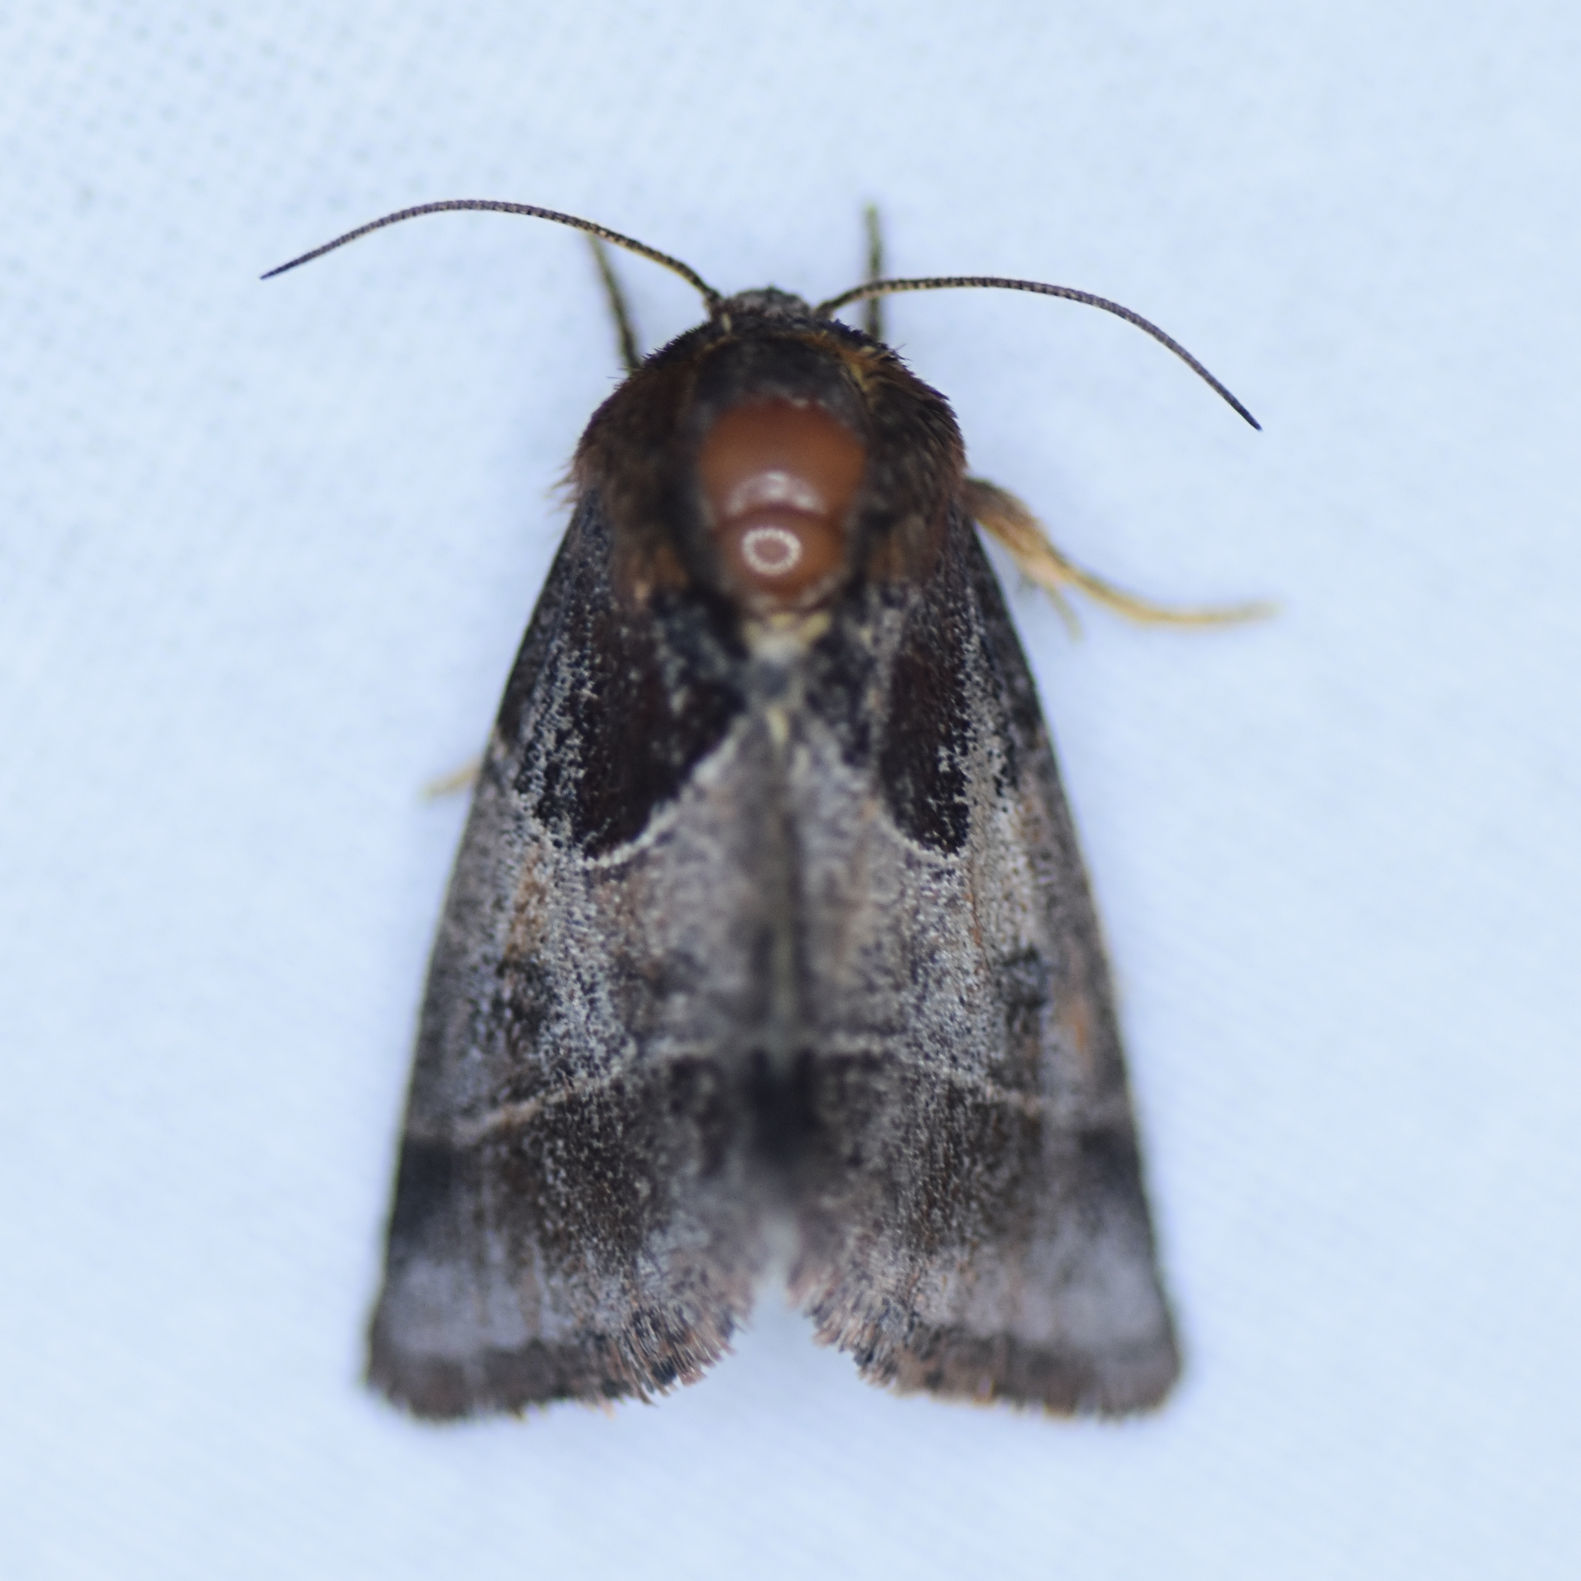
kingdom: Animalia
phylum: Arthropoda
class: Insecta
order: Lepidoptera
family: Noctuidae
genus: Schinia
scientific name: Schinia arcigera
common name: Arcigera flower moth
